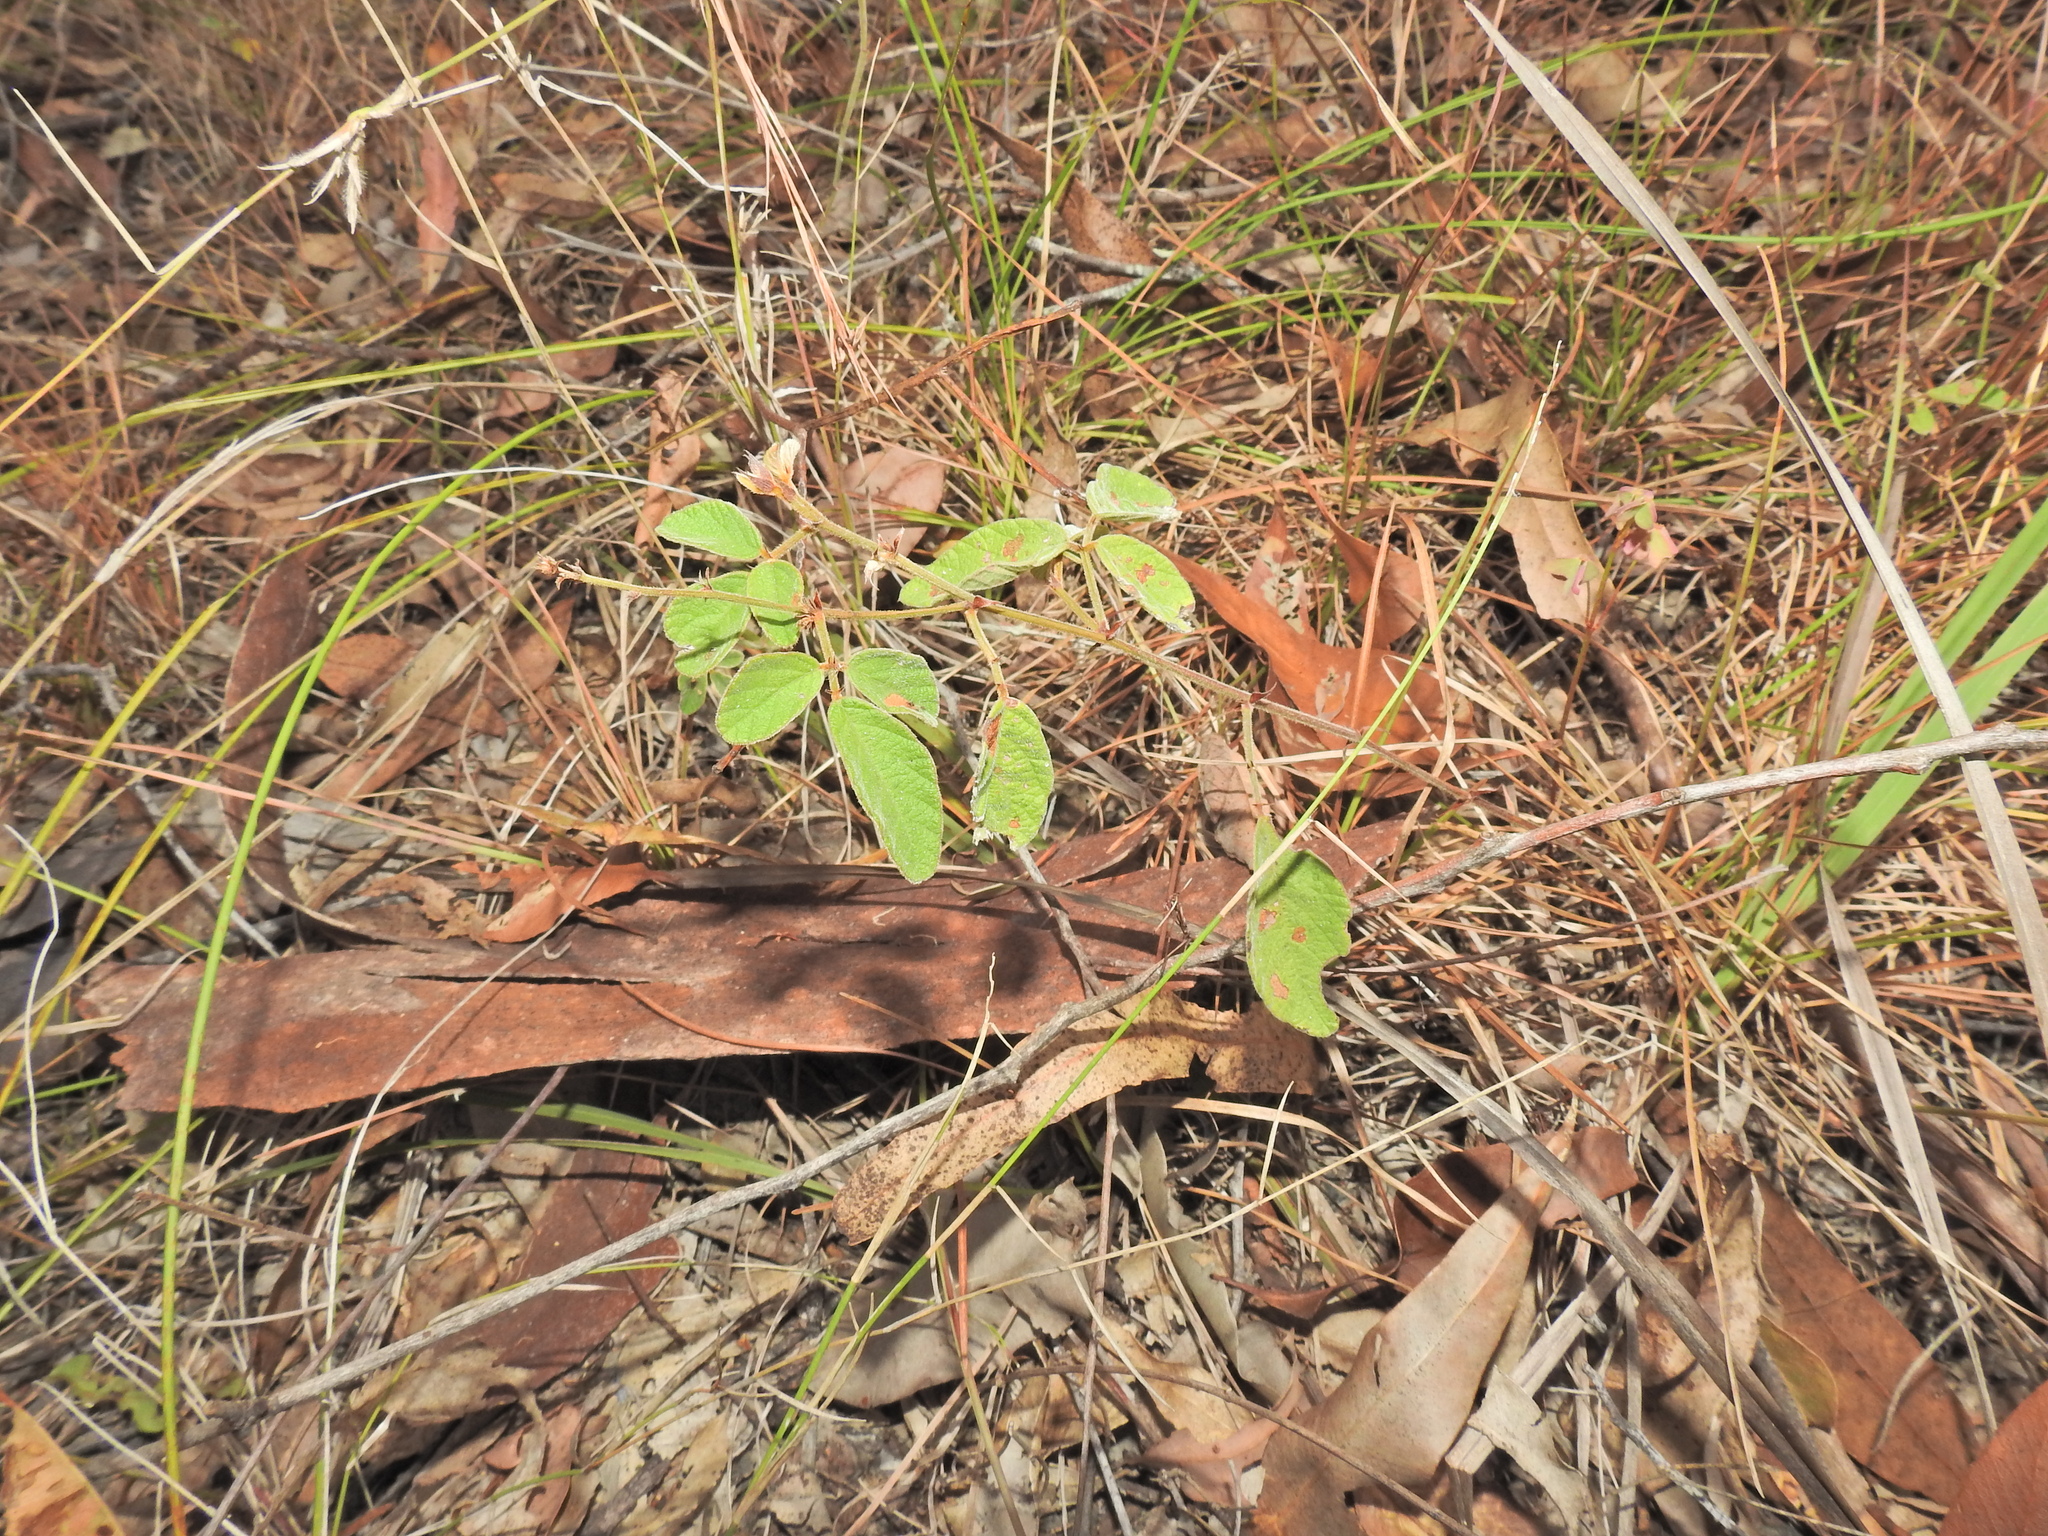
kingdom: Plantae
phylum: Tracheophyta
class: Magnoliopsida
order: Fabales
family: Fabaceae
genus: Maekawaea
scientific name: Maekawaea rhytidophylla
